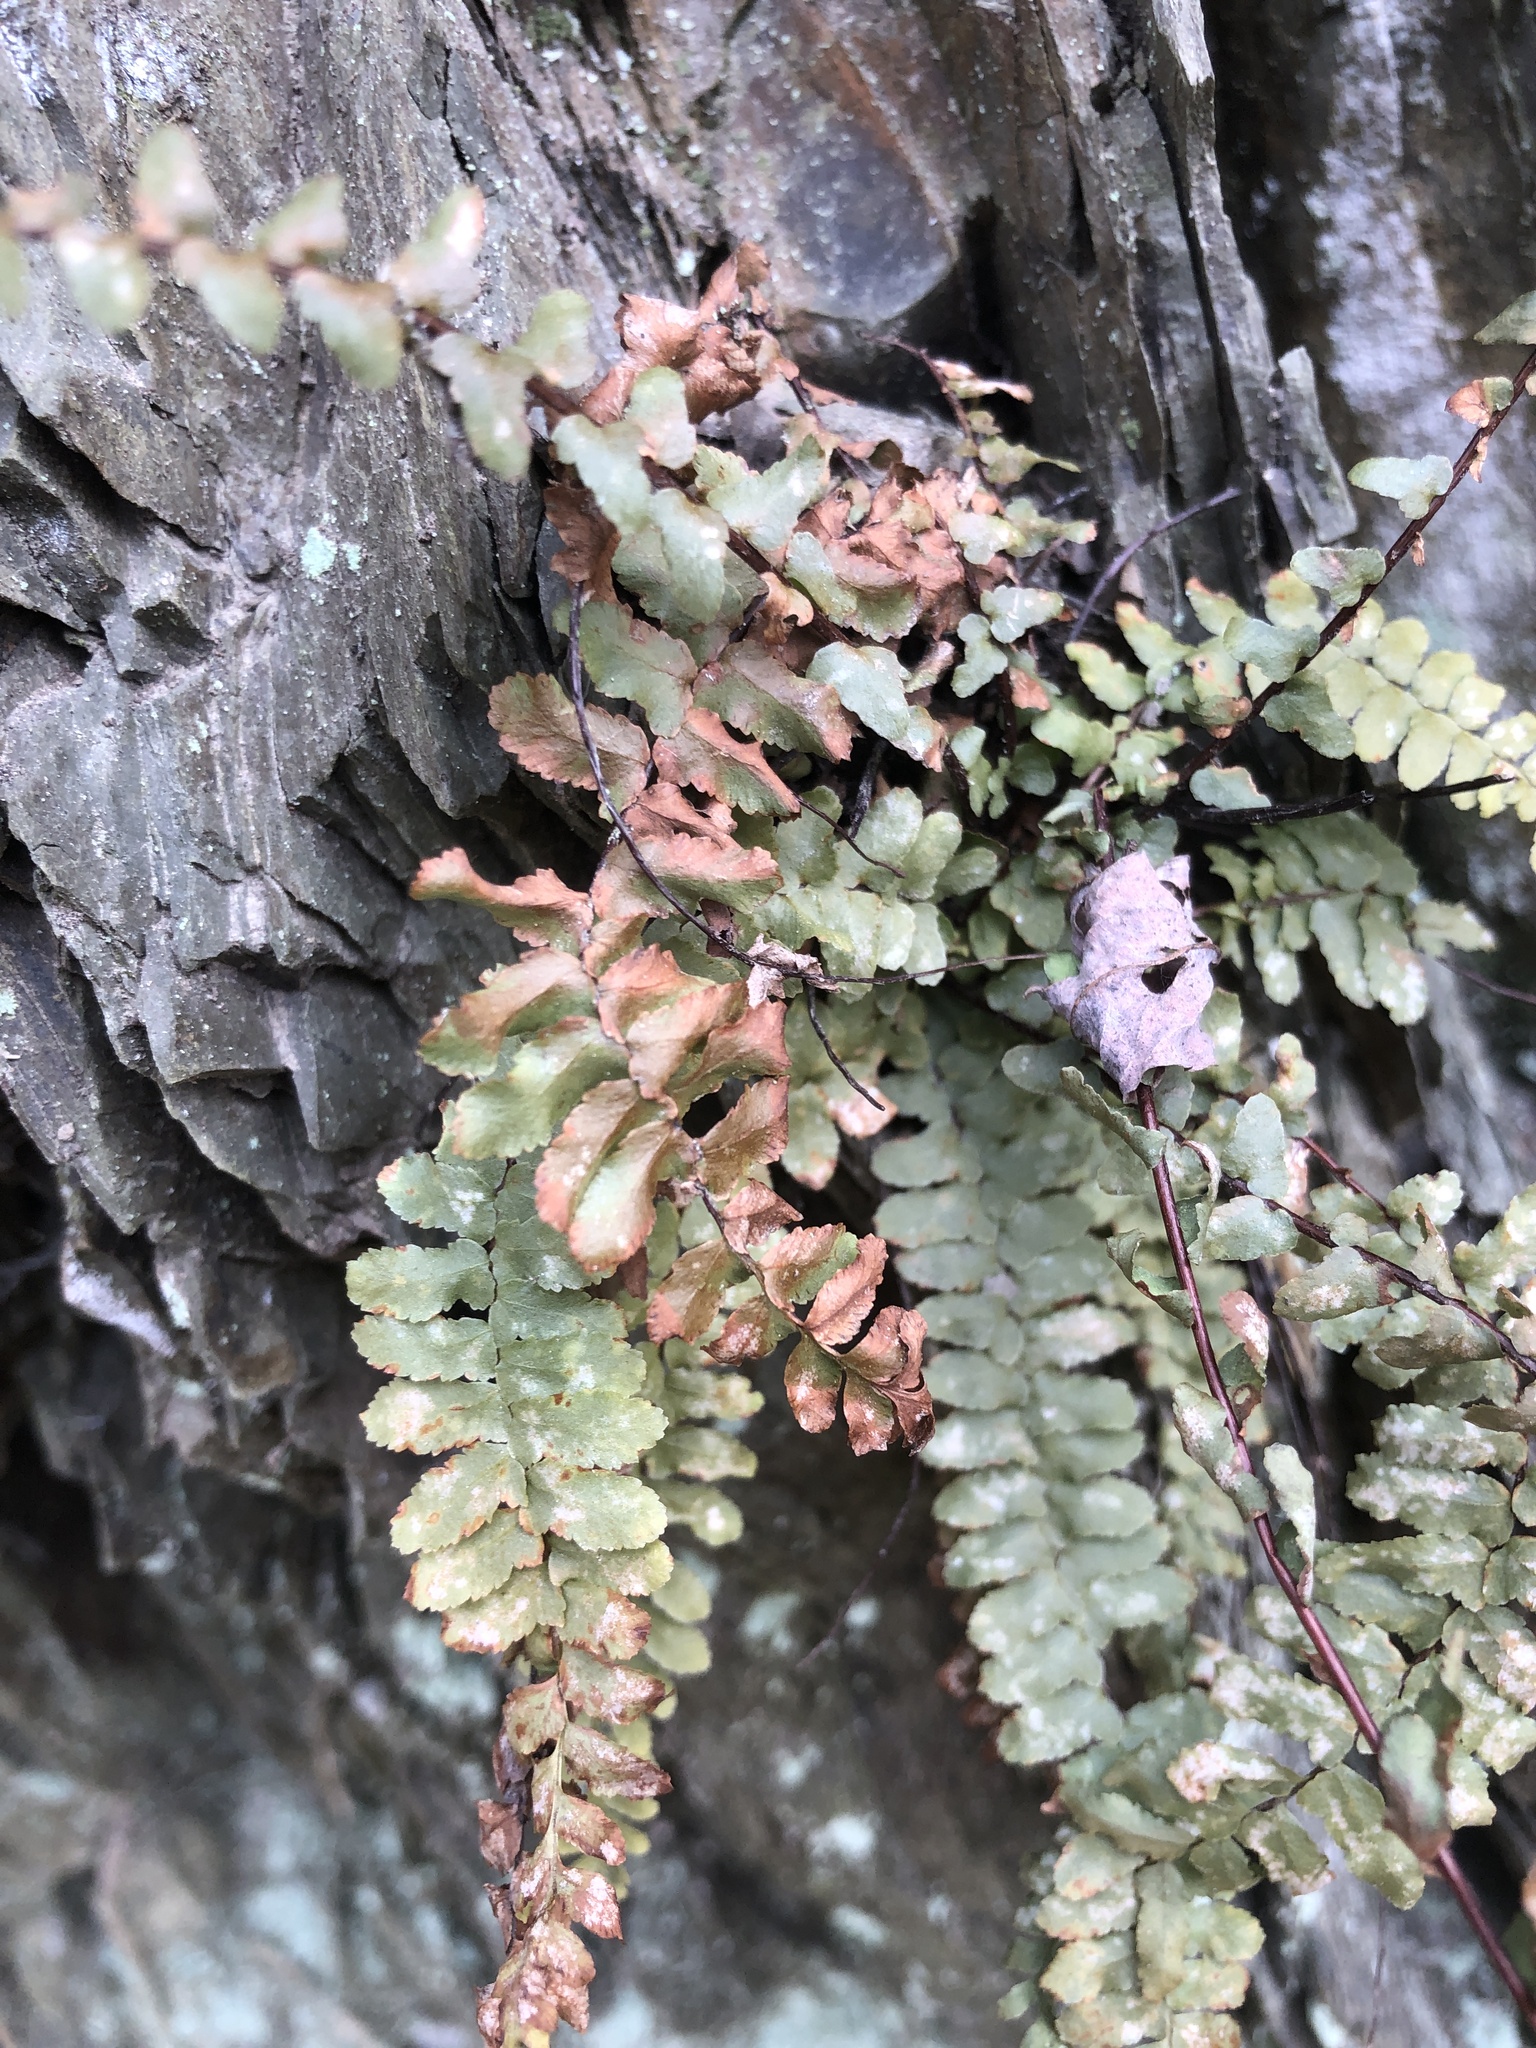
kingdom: Plantae
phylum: Tracheophyta
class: Polypodiopsida
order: Polypodiales
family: Aspleniaceae
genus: Asplenium
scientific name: Asplenium platyneuron
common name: Ebony spleenwort
